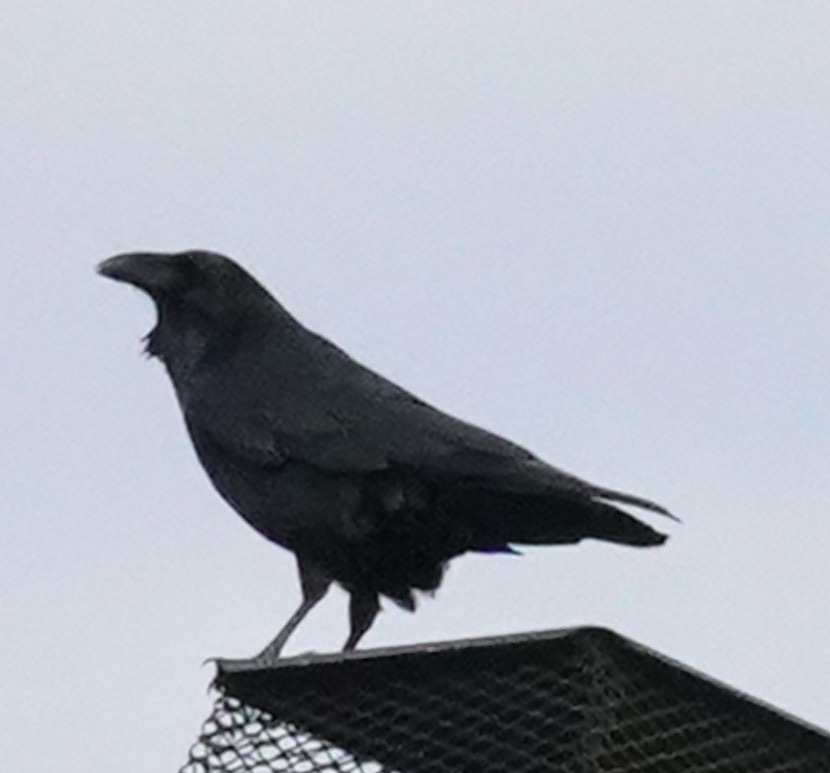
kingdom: Animalia
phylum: Chordata
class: Aves
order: Passeriformes
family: Corvidae
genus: Corvus
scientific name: Corvus corax
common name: Common raven
